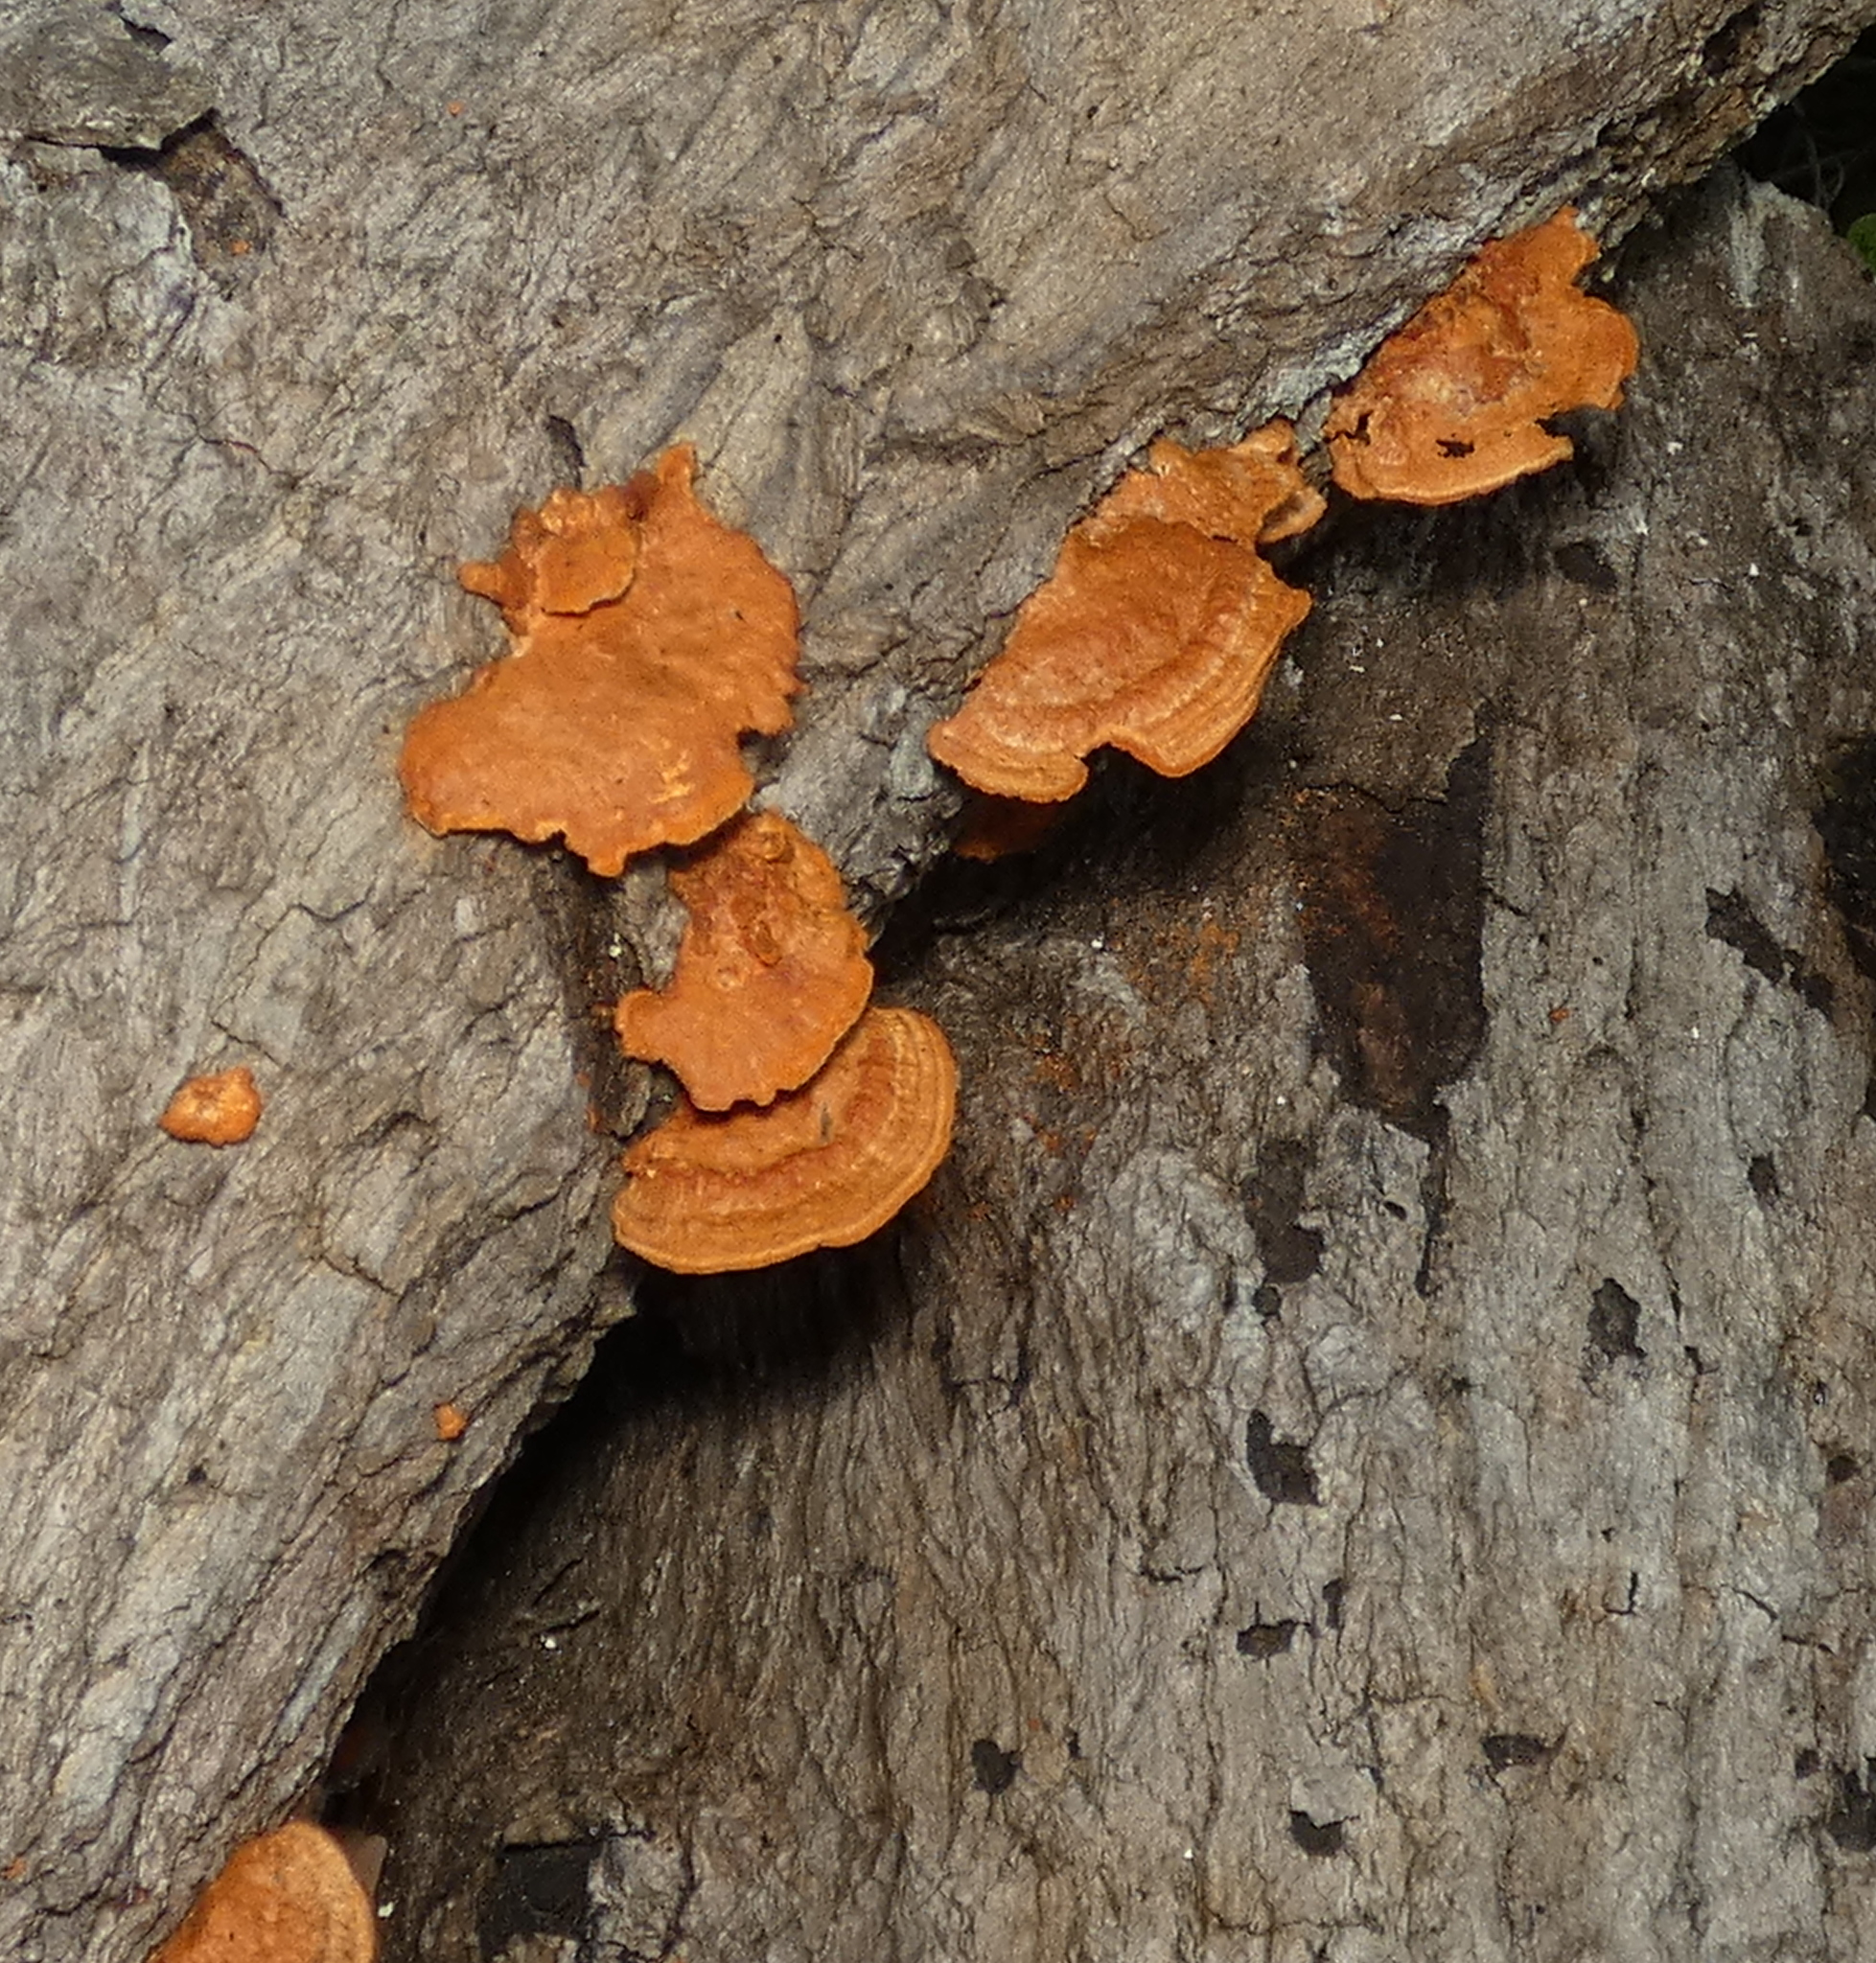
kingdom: Fungi
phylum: Basidiomycota
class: Agaricomycetes
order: Polyporales
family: Polyporaceae
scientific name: Polyporaceae
